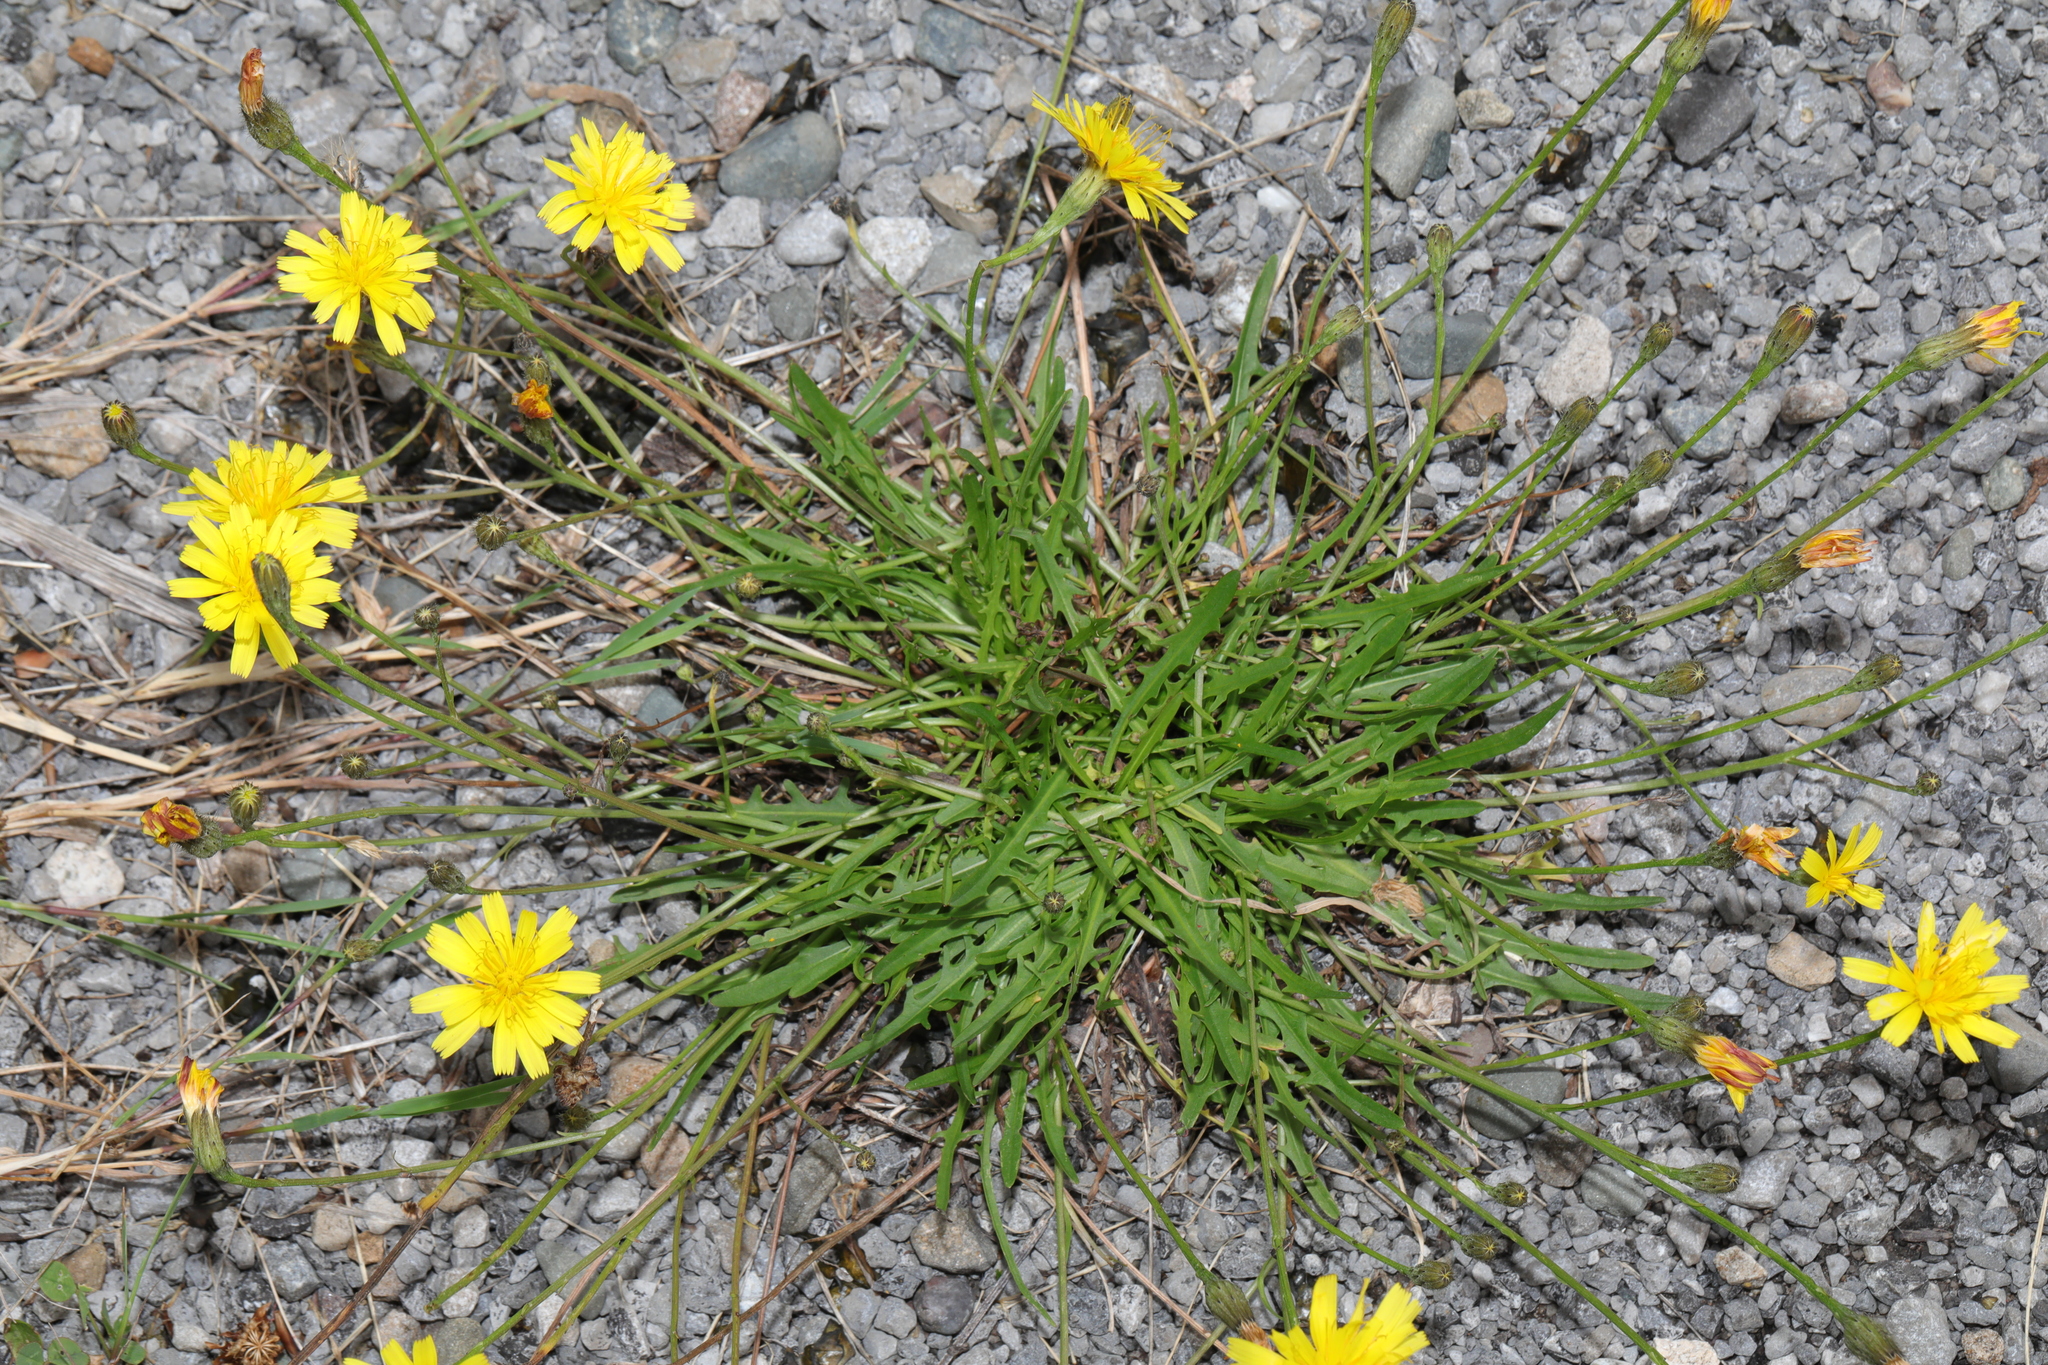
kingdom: Plantae
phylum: Tracheophyta
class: Magnoliopsida
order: Asterales
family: Asteraceae
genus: Scorzoneroides
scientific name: Scorzoneroides autumnalis
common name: Autumn hawkbit
